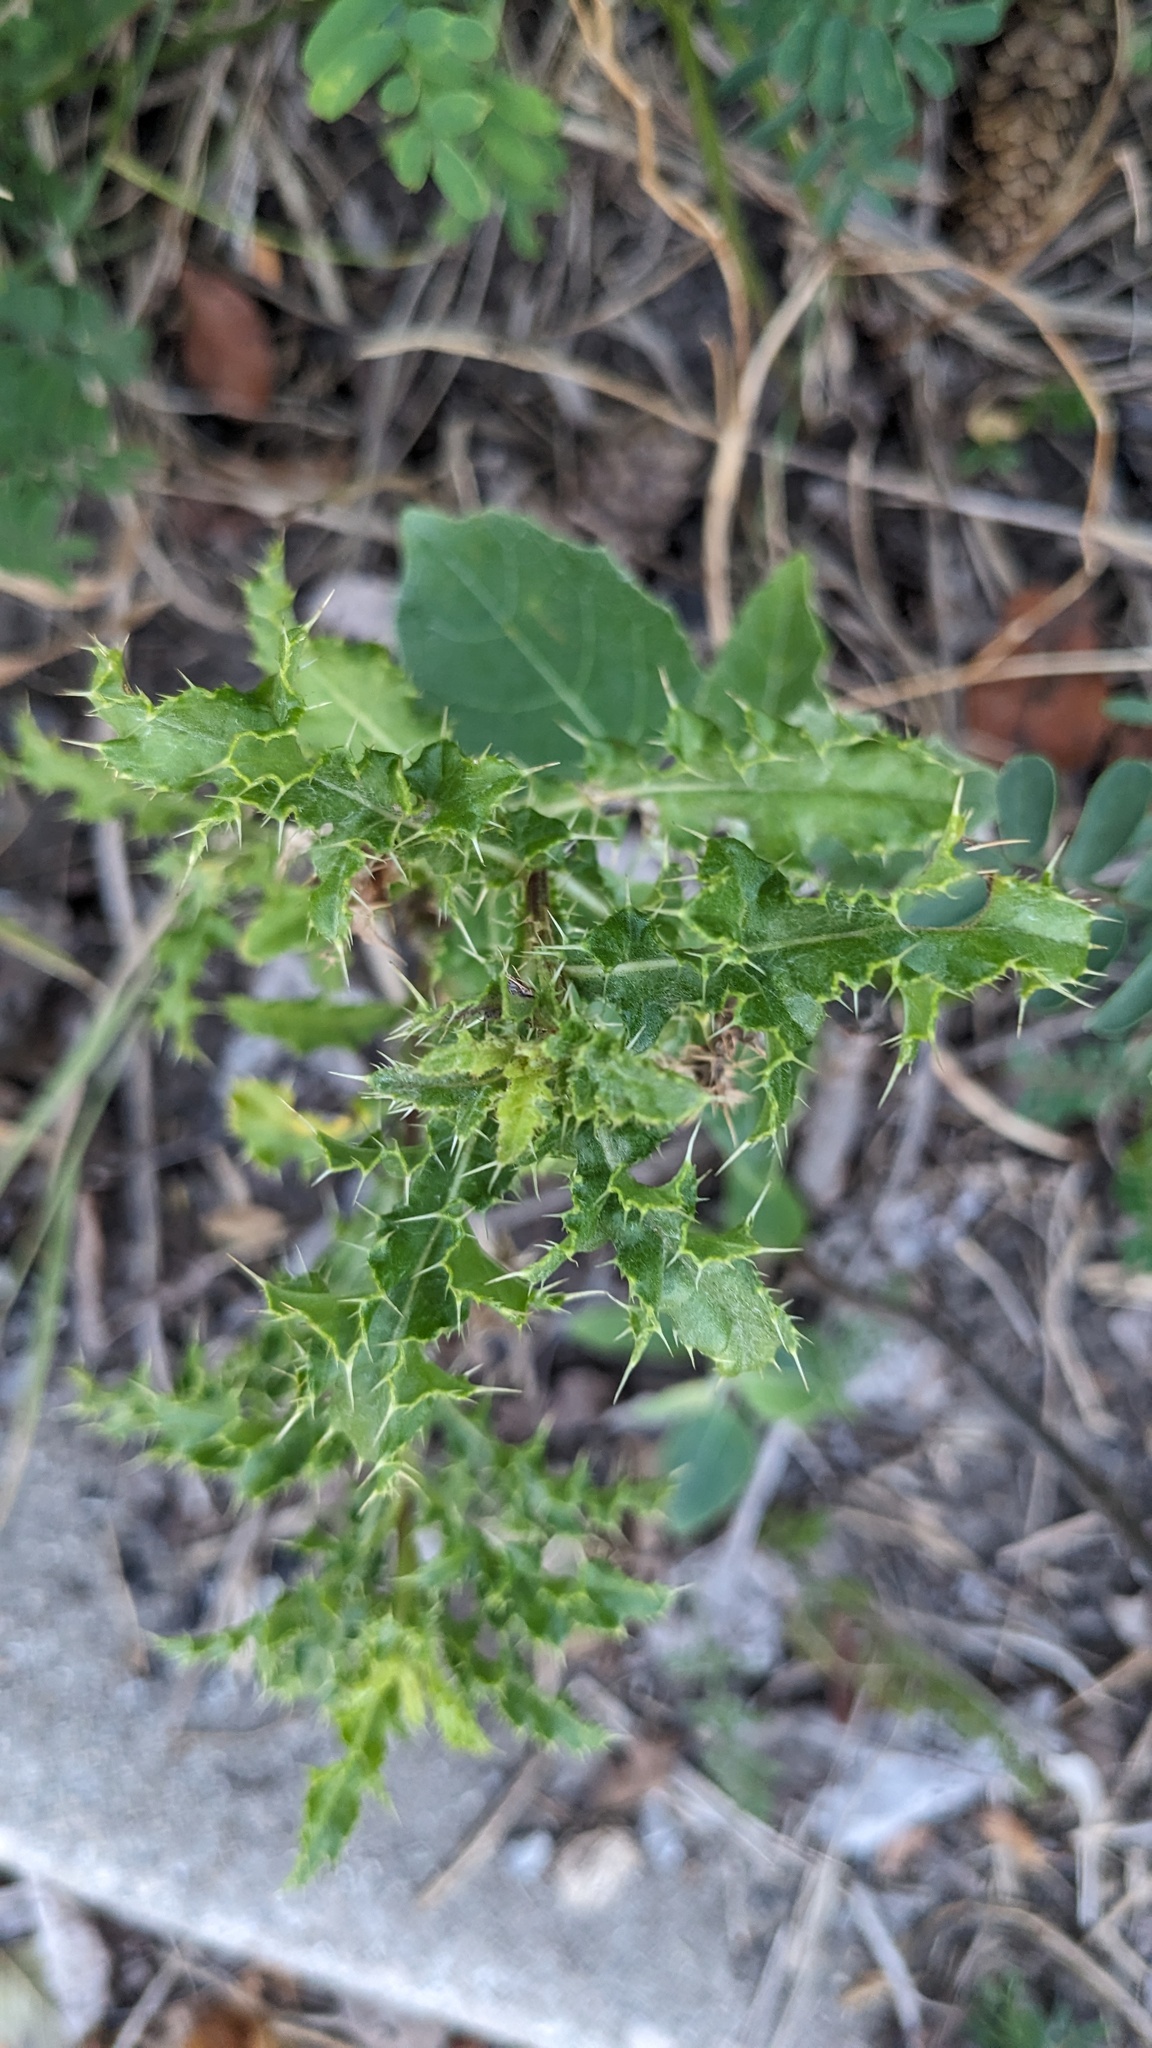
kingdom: Plantae
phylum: Tracheophyta
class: Magnoliopsida
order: Asterales
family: Asteraceae
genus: Cirsium
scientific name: Cirsium arvense
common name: Creeping thistle
